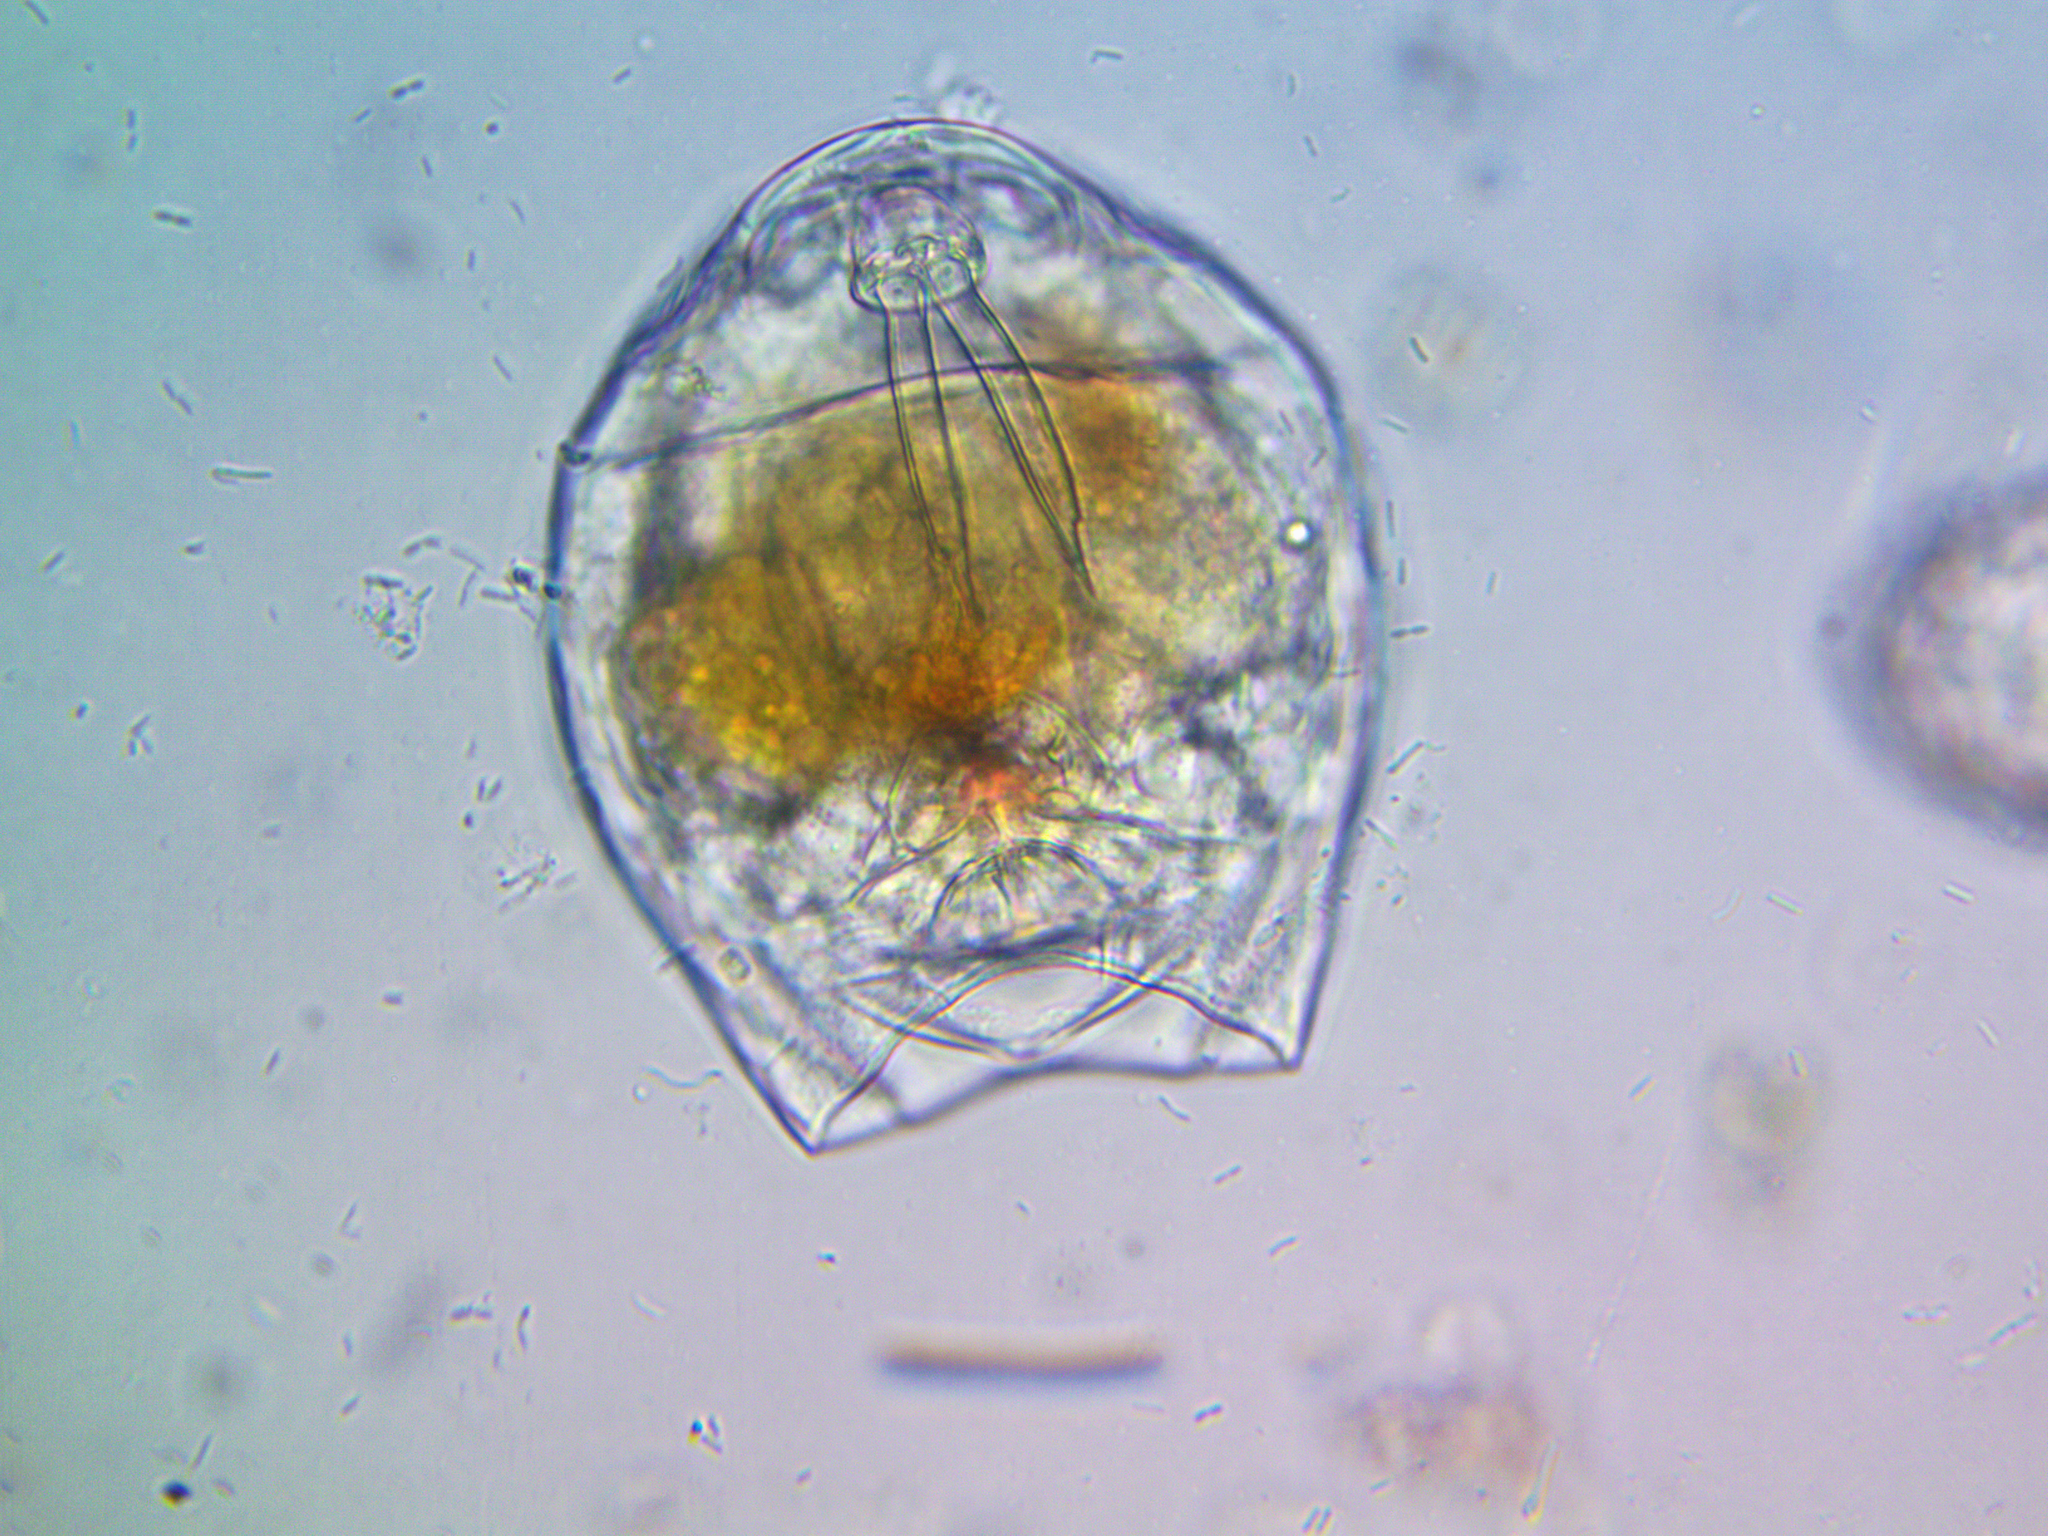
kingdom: Animalia
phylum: Rotifera
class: Eurotatoria
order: Ploima
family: Lecanidae
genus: Lecane
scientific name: Lecane luna
